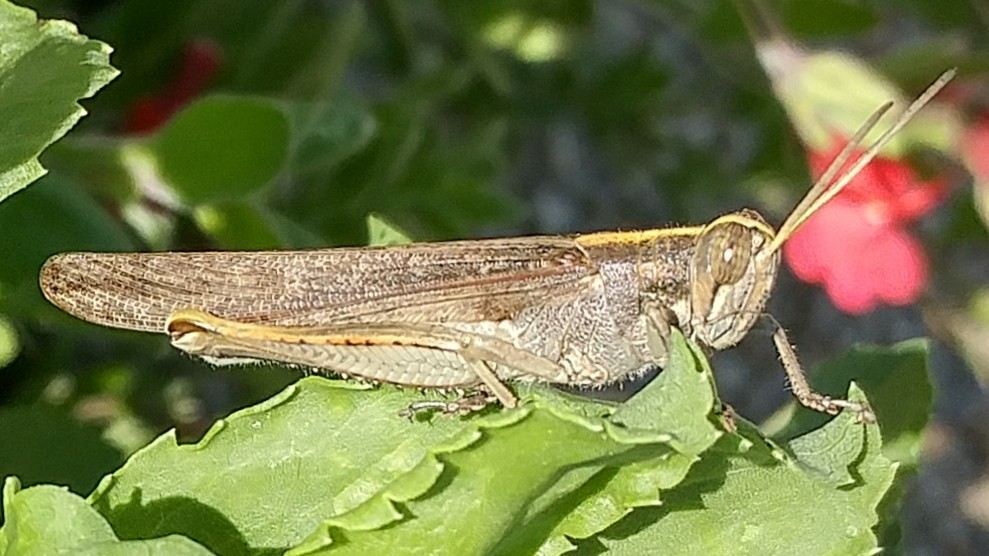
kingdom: Animalia
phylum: Arthropoda
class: Insecta
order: Orthoptera
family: Acrididae
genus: Schistocerca
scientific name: Schistocerca nitens
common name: Vagrant grasshopper
